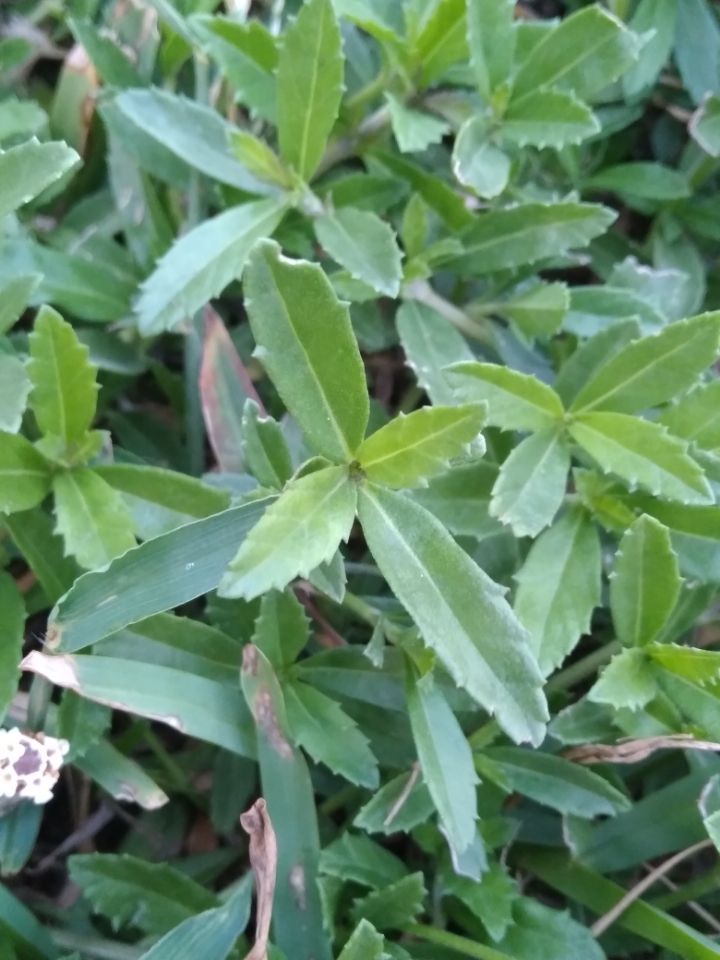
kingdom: Plantae
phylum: Tracheophyta
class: Magnoliopsida
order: Lamiales
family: Verbenaceae
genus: Phyla
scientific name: Phyla nodiflora
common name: Frogfruit
